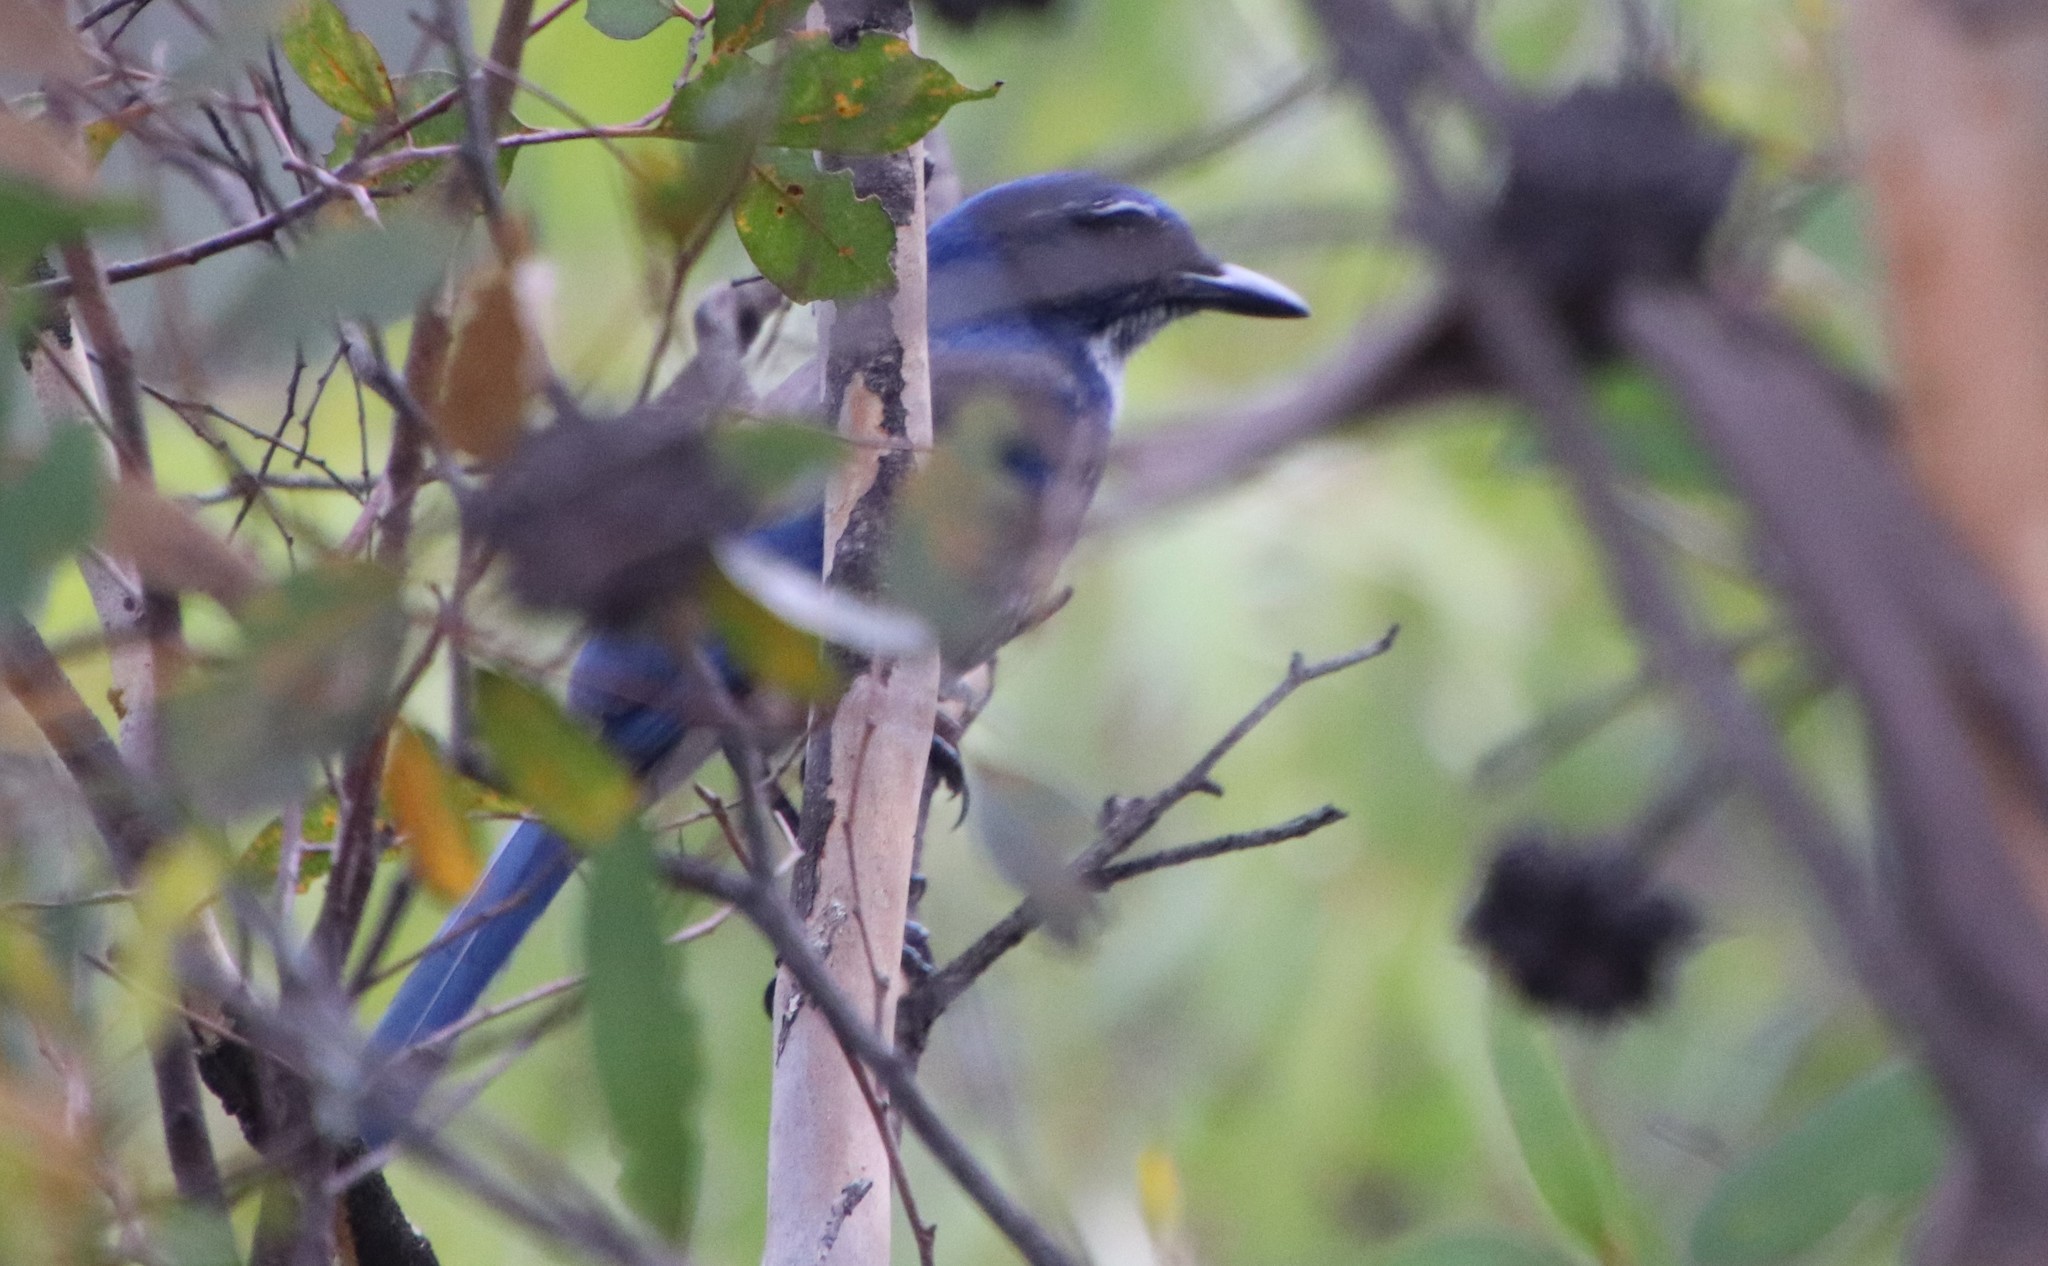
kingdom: Animalia
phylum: Chordata
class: Aves
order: Passeriformes
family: Corvidae
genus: Aphelocoma
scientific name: Aphelocoma californica
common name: California scrub-jay
